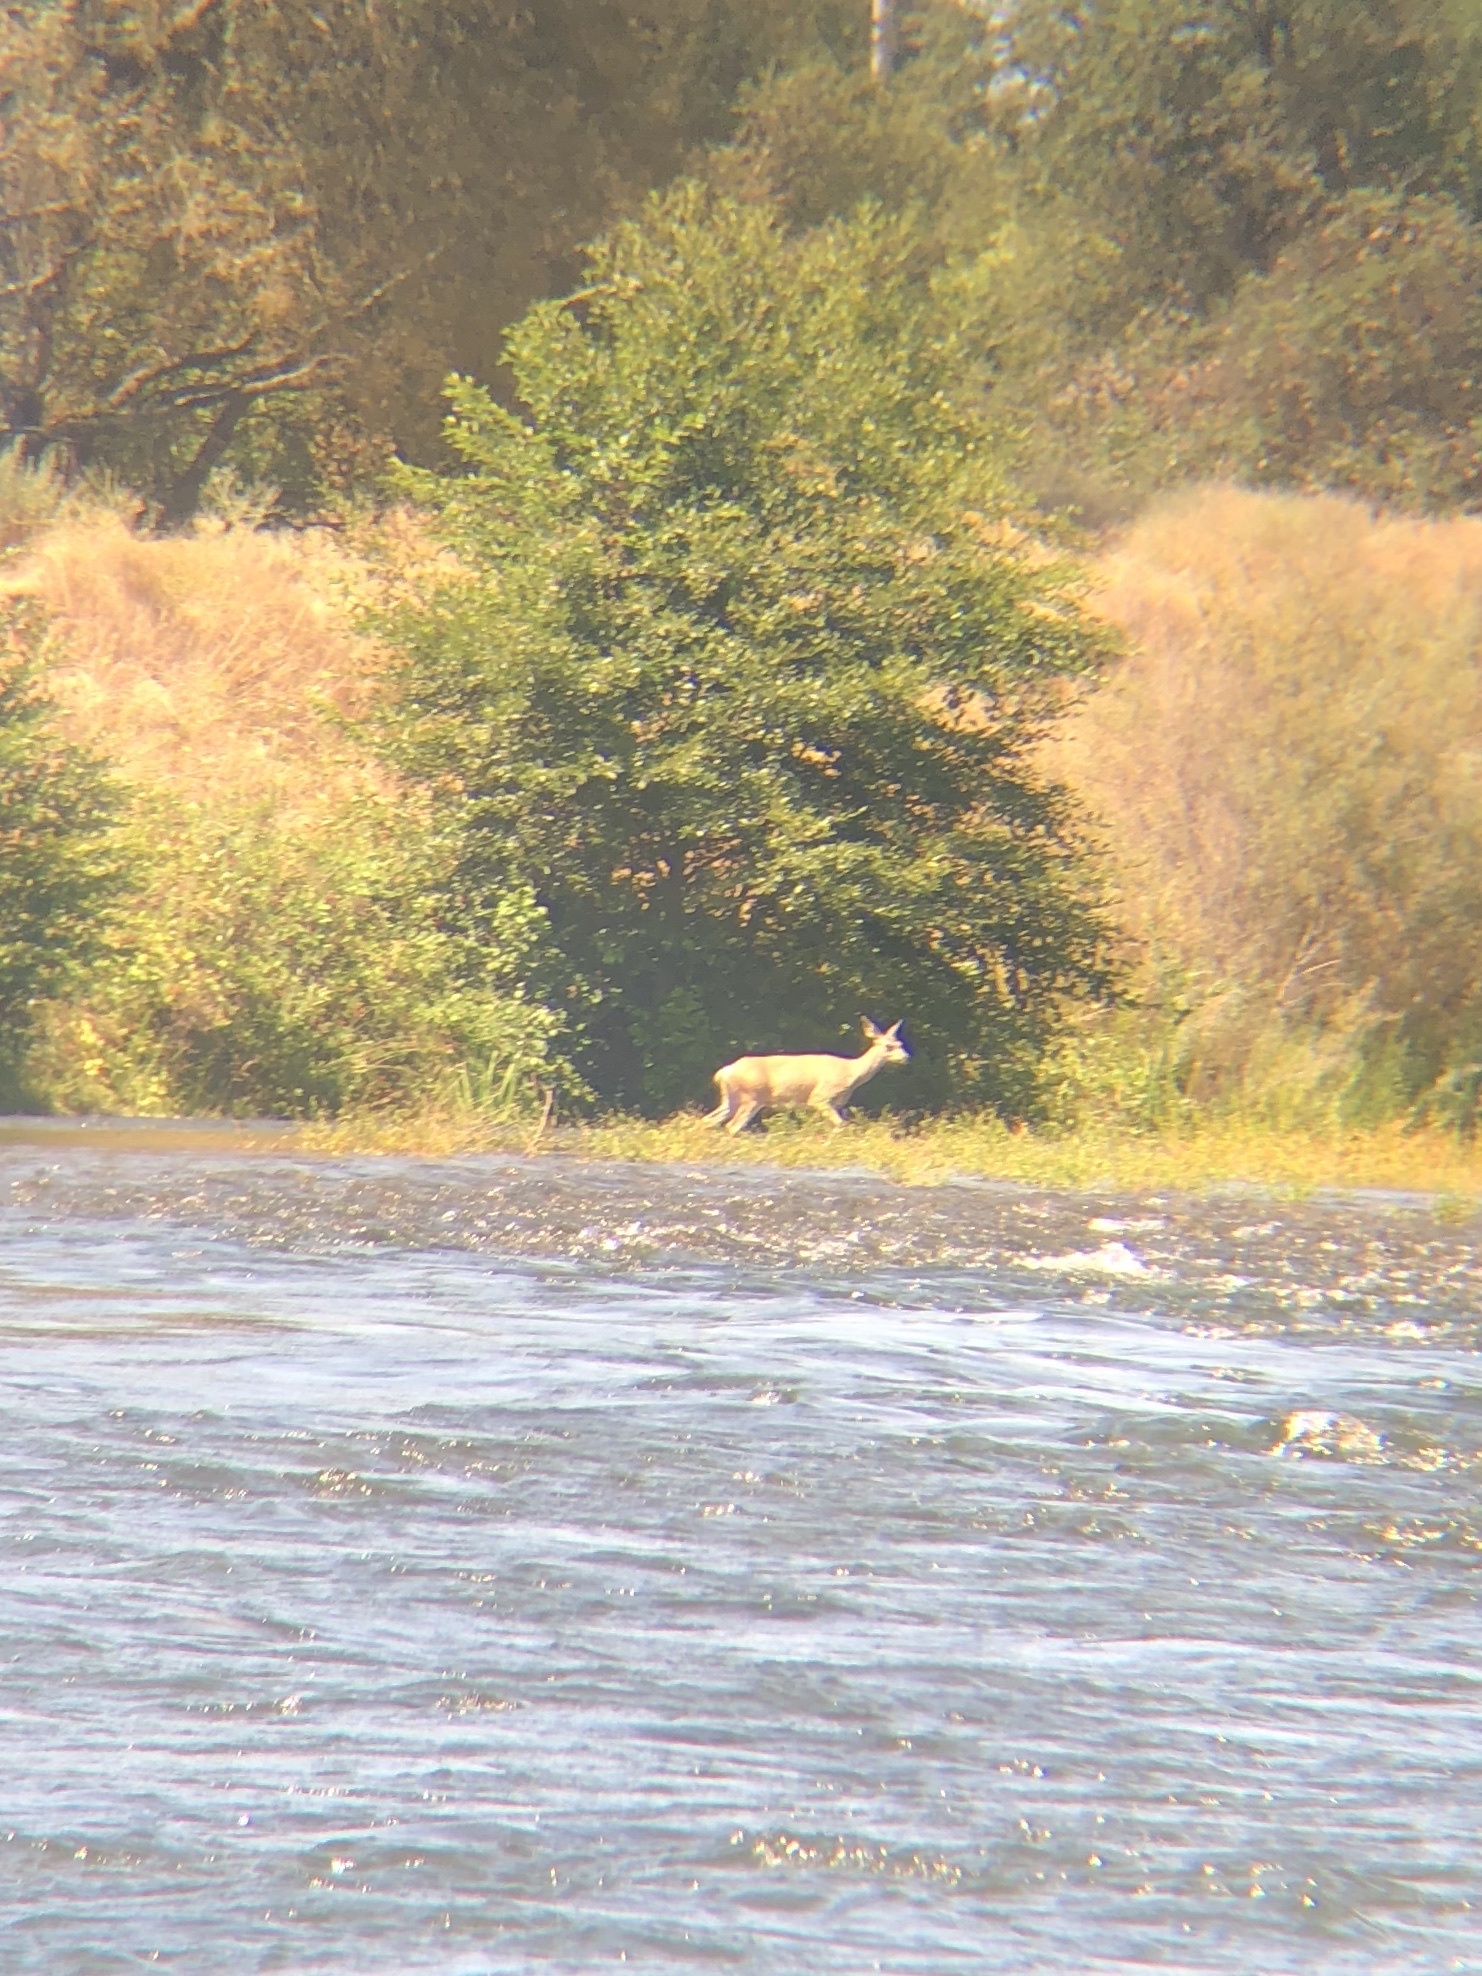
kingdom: Animalia
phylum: Chordata
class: Mammalia
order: Artiodactyla
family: Cervidae
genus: Odocoileus
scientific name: Odocoileus hemionus
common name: Mule deer
